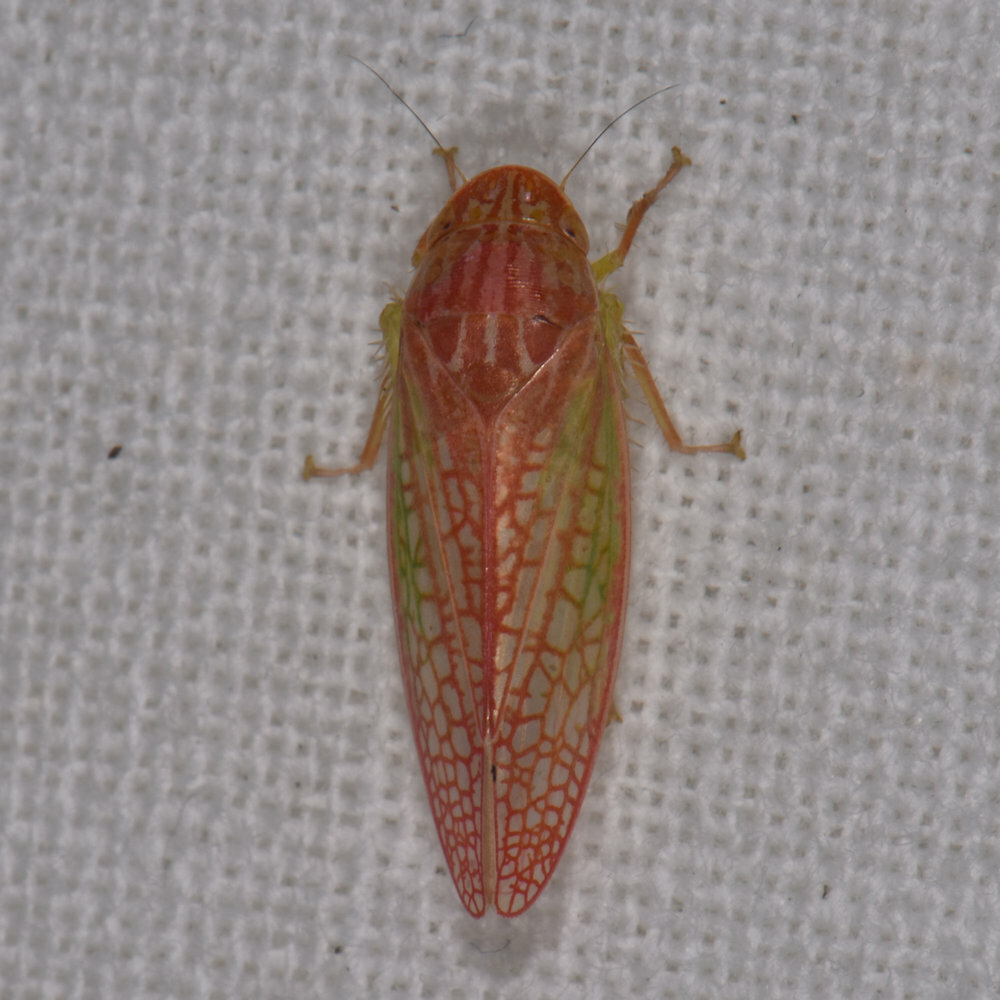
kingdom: Animalia
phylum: Arthropoda
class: Insecta
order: Hemiptera
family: Cicadellidae
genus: Gyponana
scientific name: Gyponana octolineata
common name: Eight-lined leafhopper
